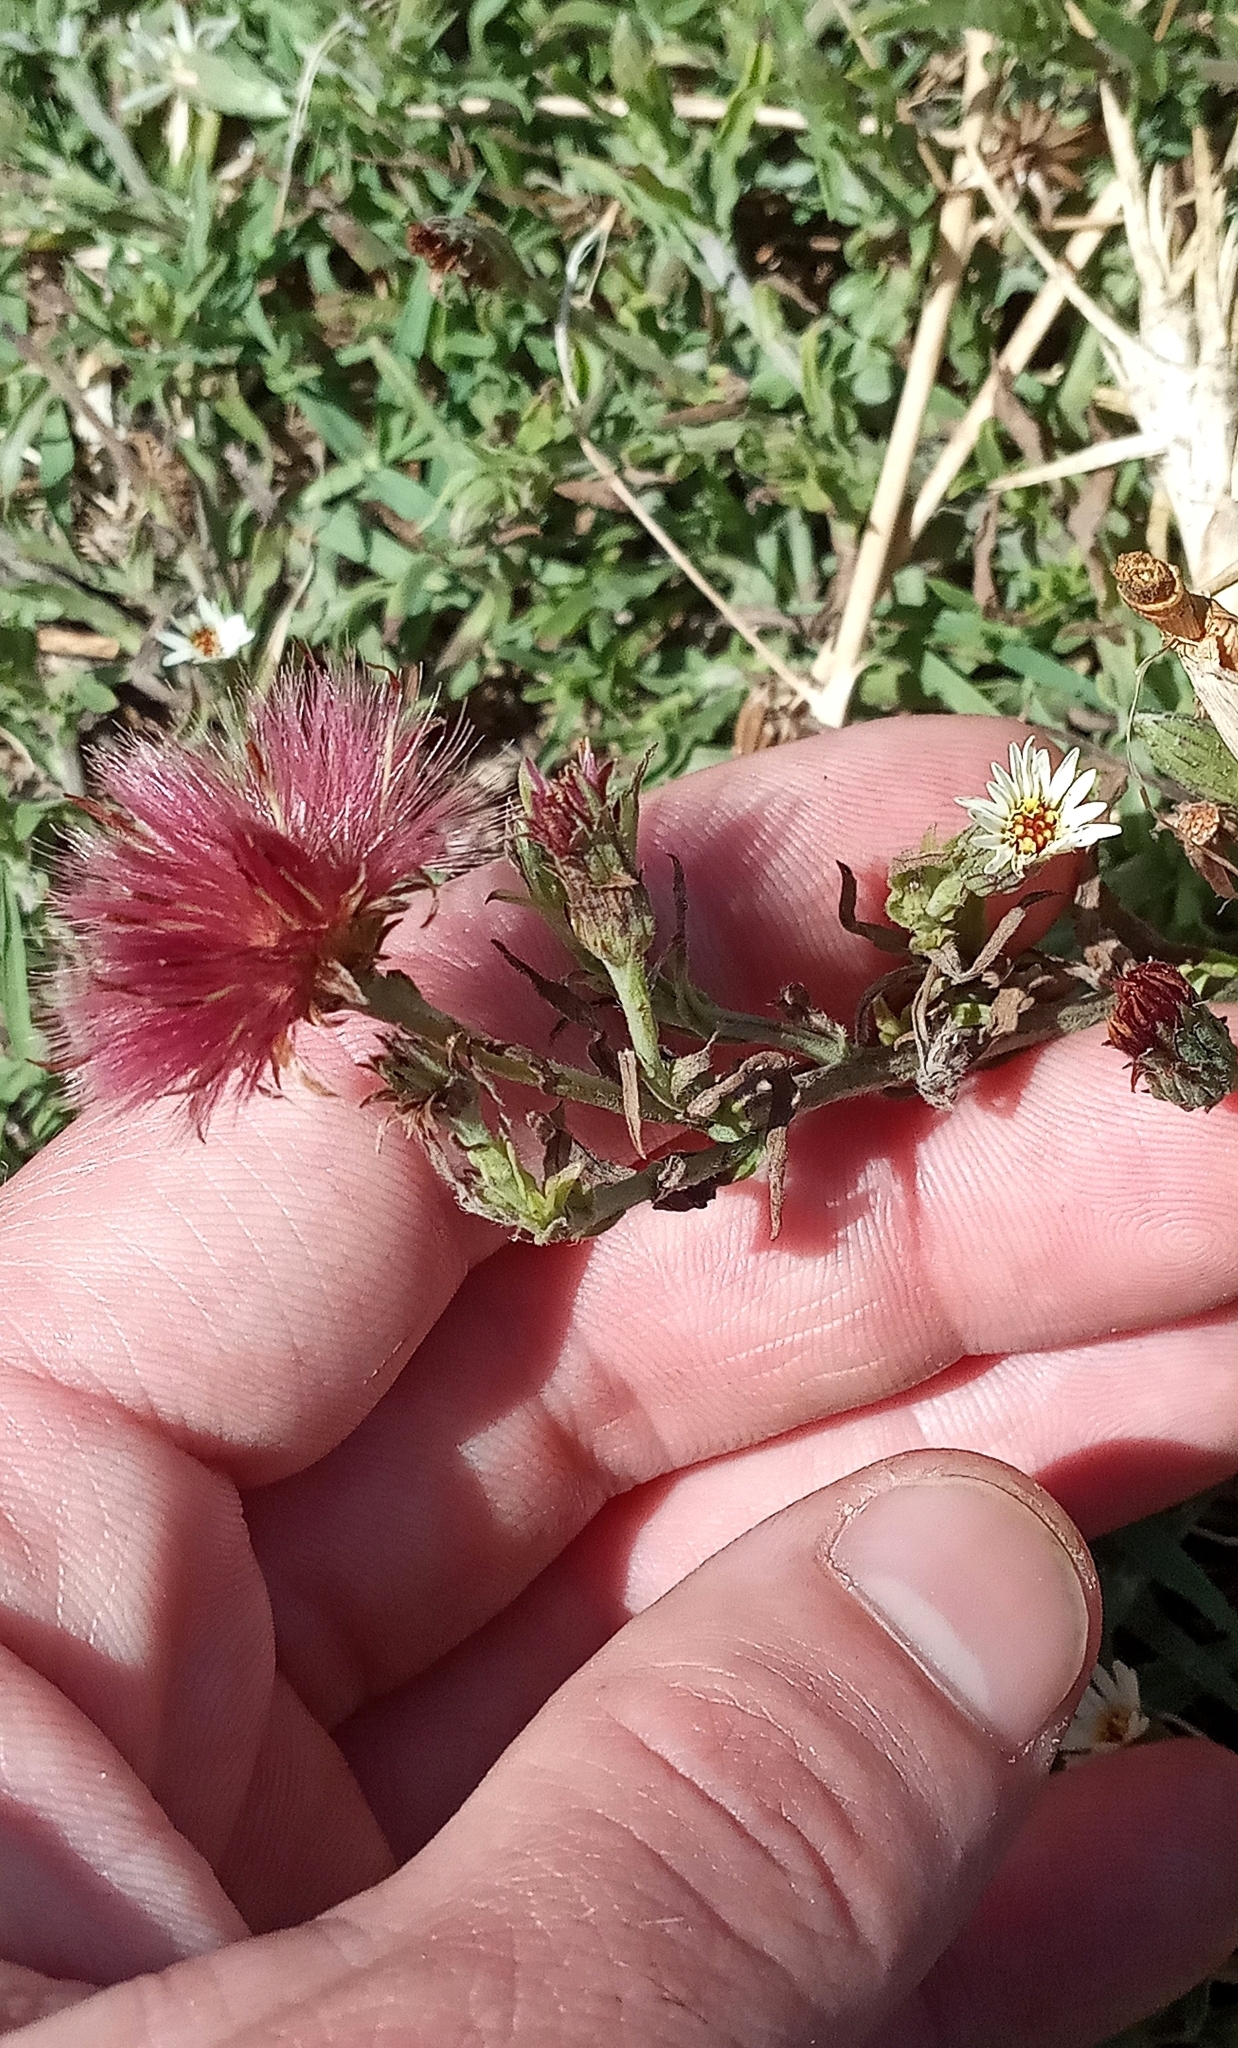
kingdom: Plantae
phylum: Tracheophyta
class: Magnoliopsida
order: Asterales
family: Asteraceae
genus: Noticastrum
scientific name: Noticastrum diffusum
